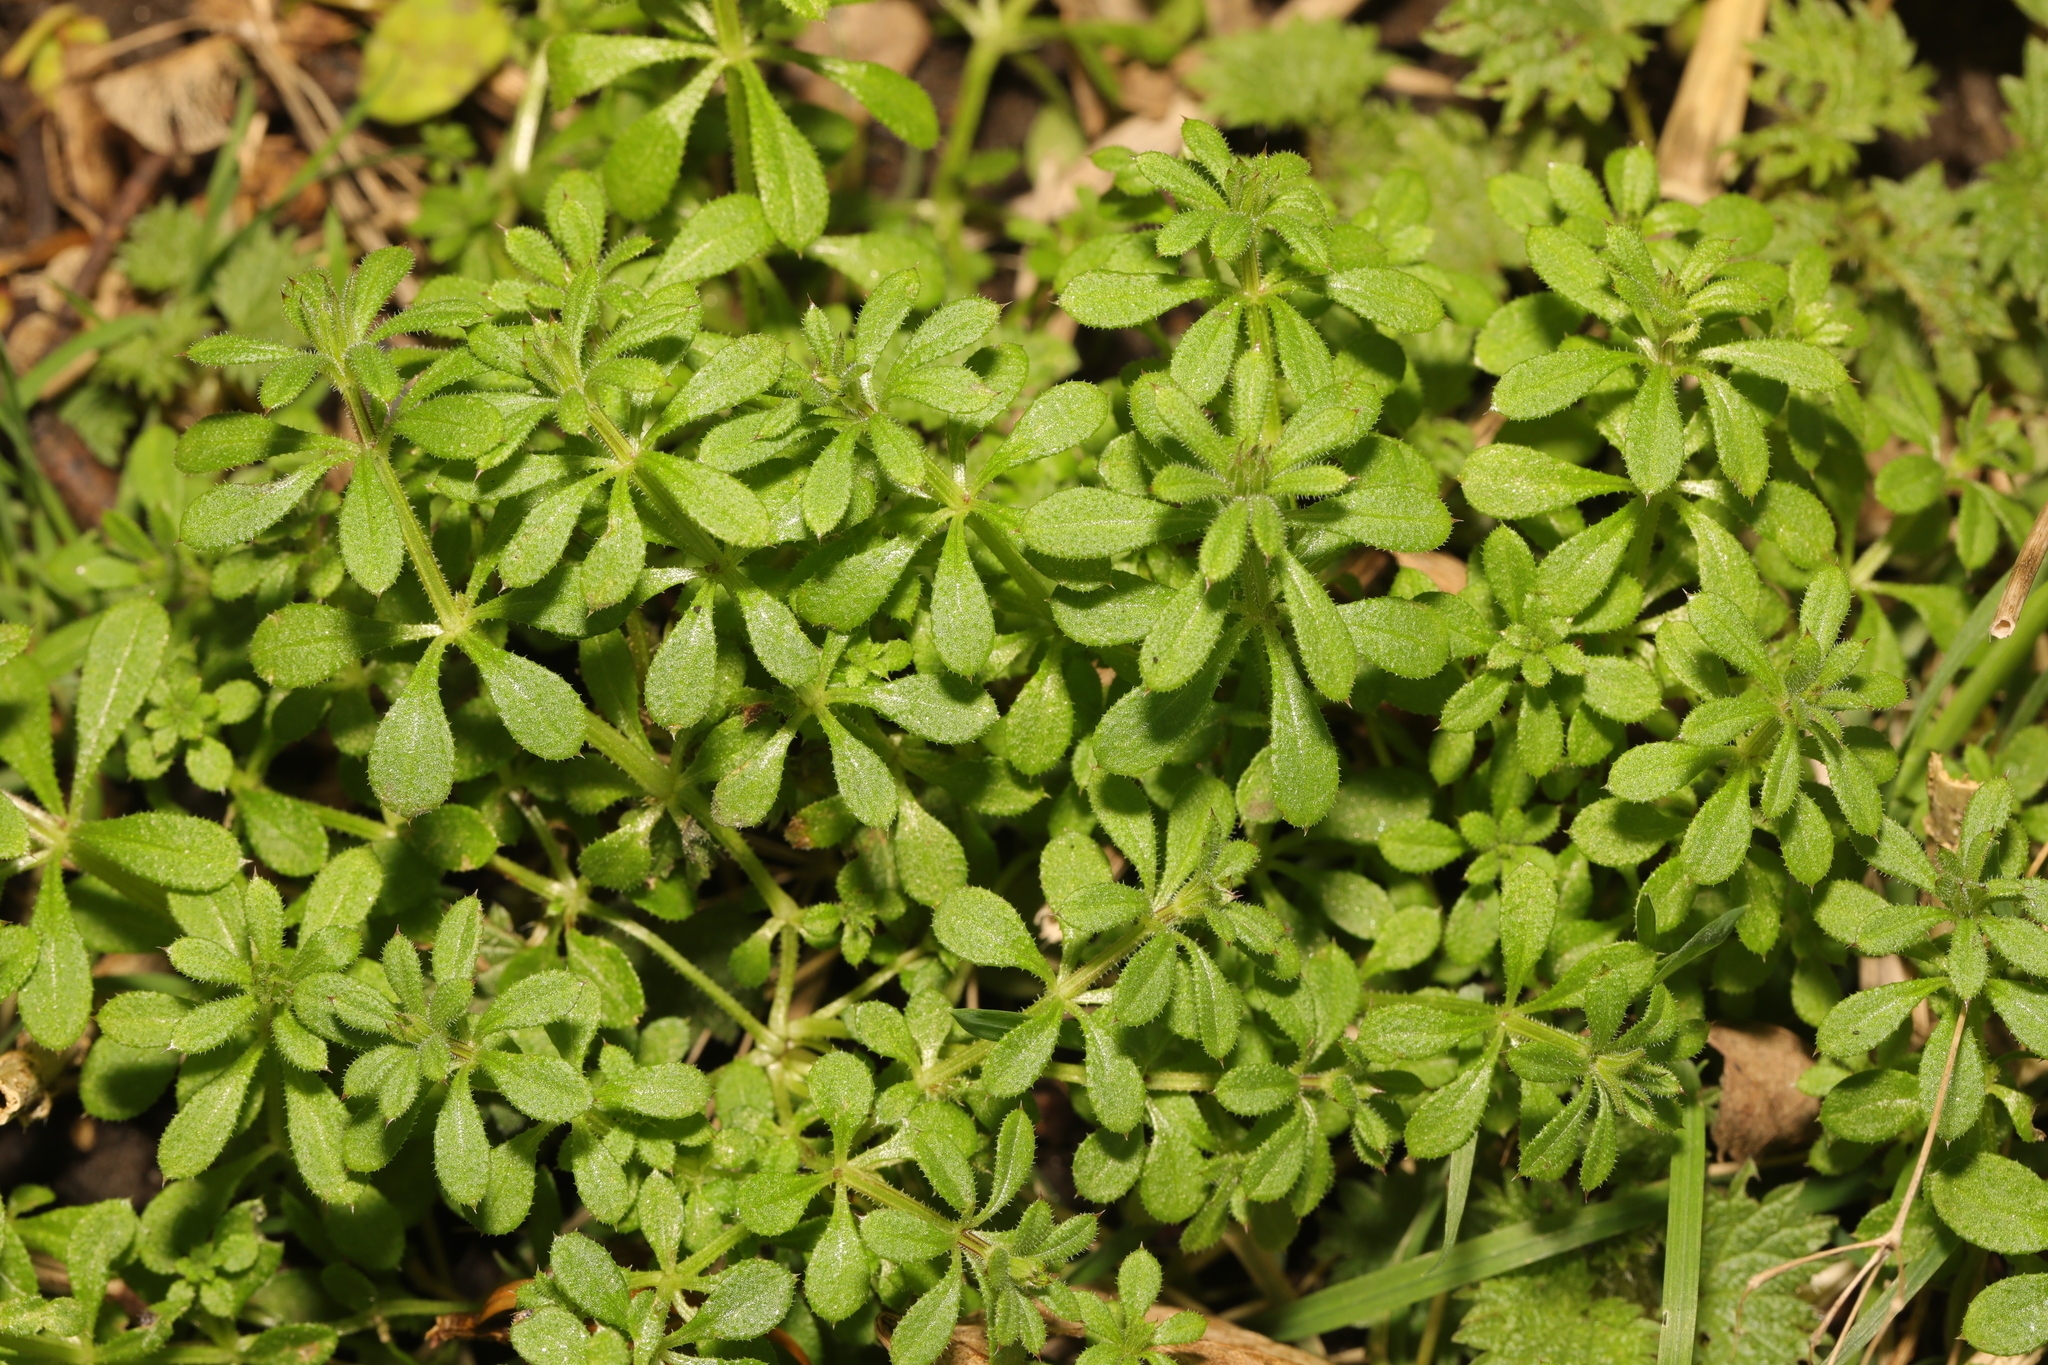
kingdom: Plantae
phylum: Tracheophyta
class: Magnoliopsida
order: Gentianales
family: Rubiaceae
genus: Galium
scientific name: Galium aparine
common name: Cleavers
